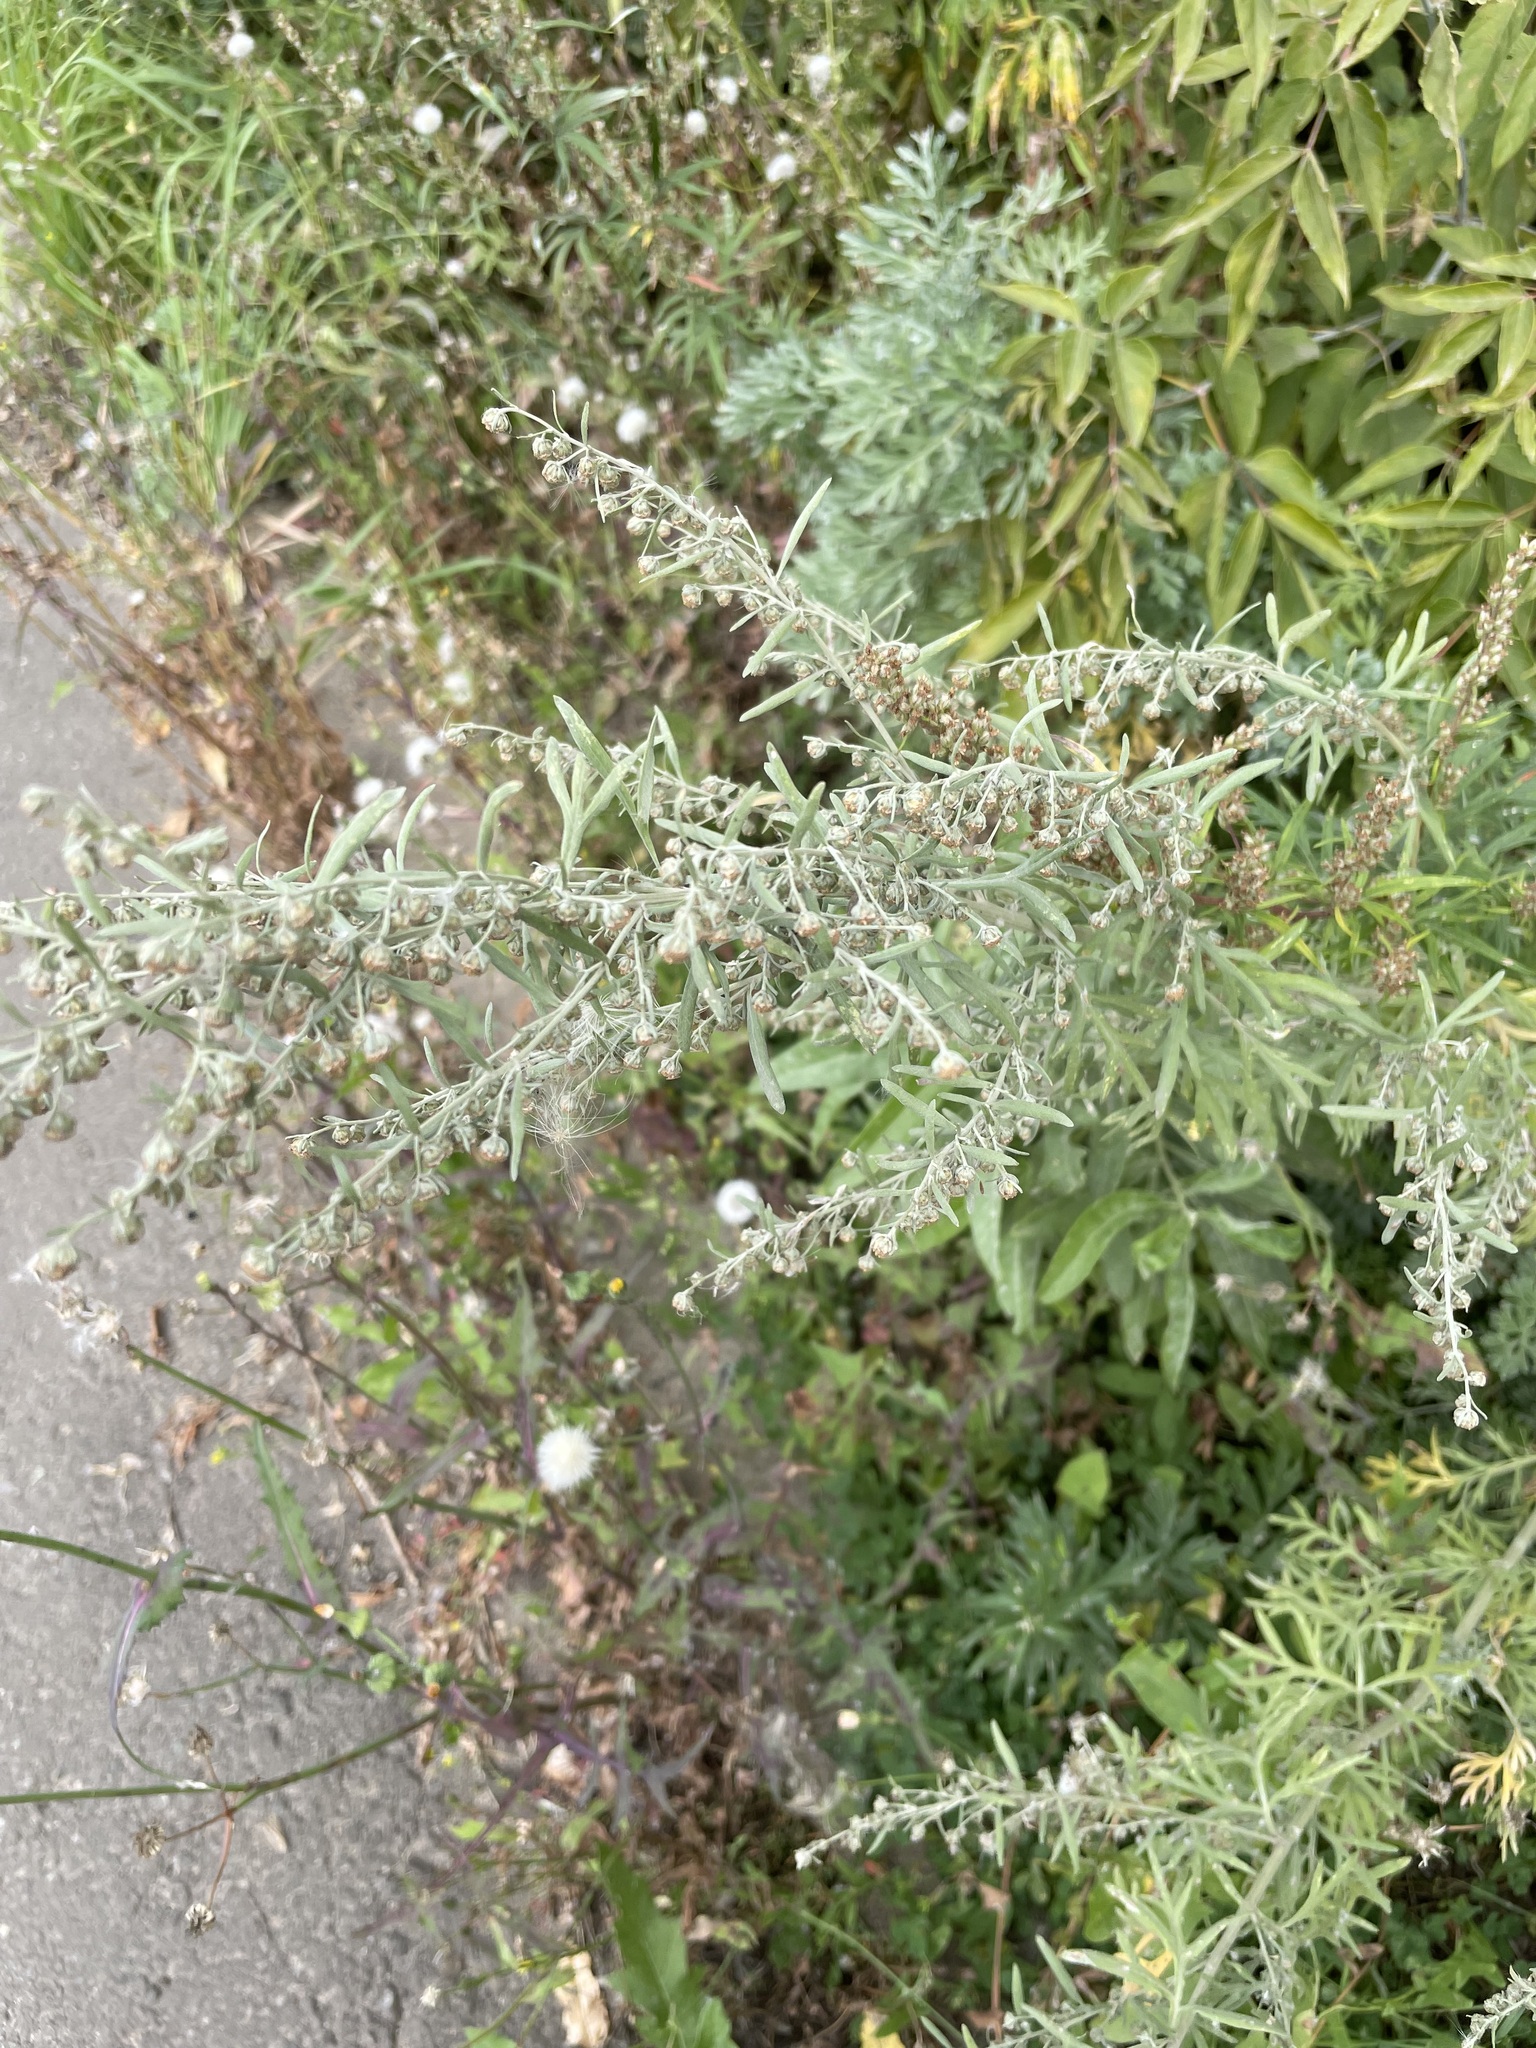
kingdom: Plantae
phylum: Tracheophyta
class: Magnoliopsida
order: Asterales
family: Asteraceae
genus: Artemisia
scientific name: Artemisia absinthium
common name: Wormwood
